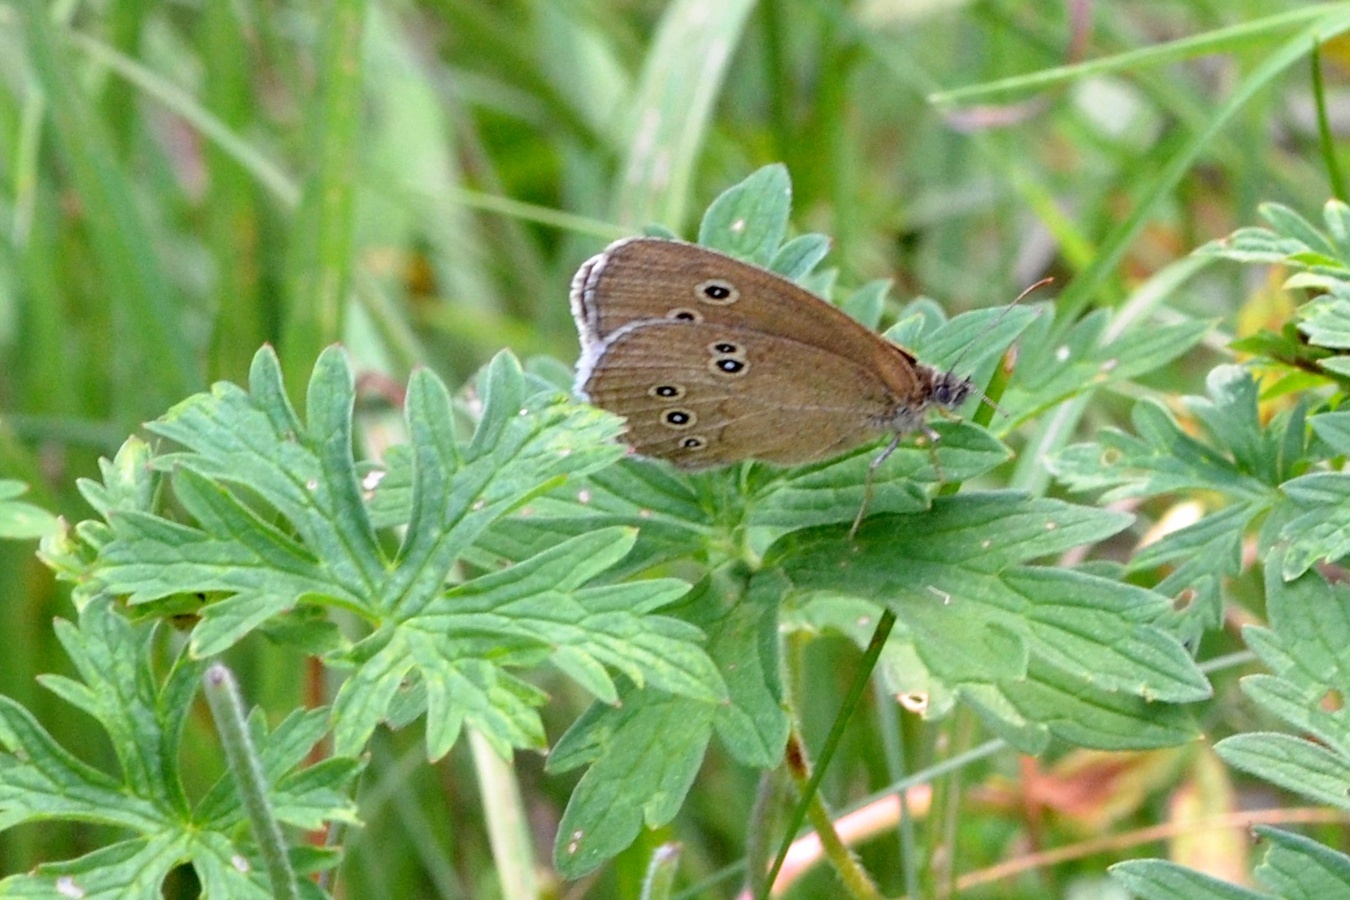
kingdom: Animalia
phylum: Arthropoda
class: Insecta
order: Lepidoptera
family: Nymphalidae
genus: Aphantopus
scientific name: Aphantopus hyperantus
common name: Ringlet
